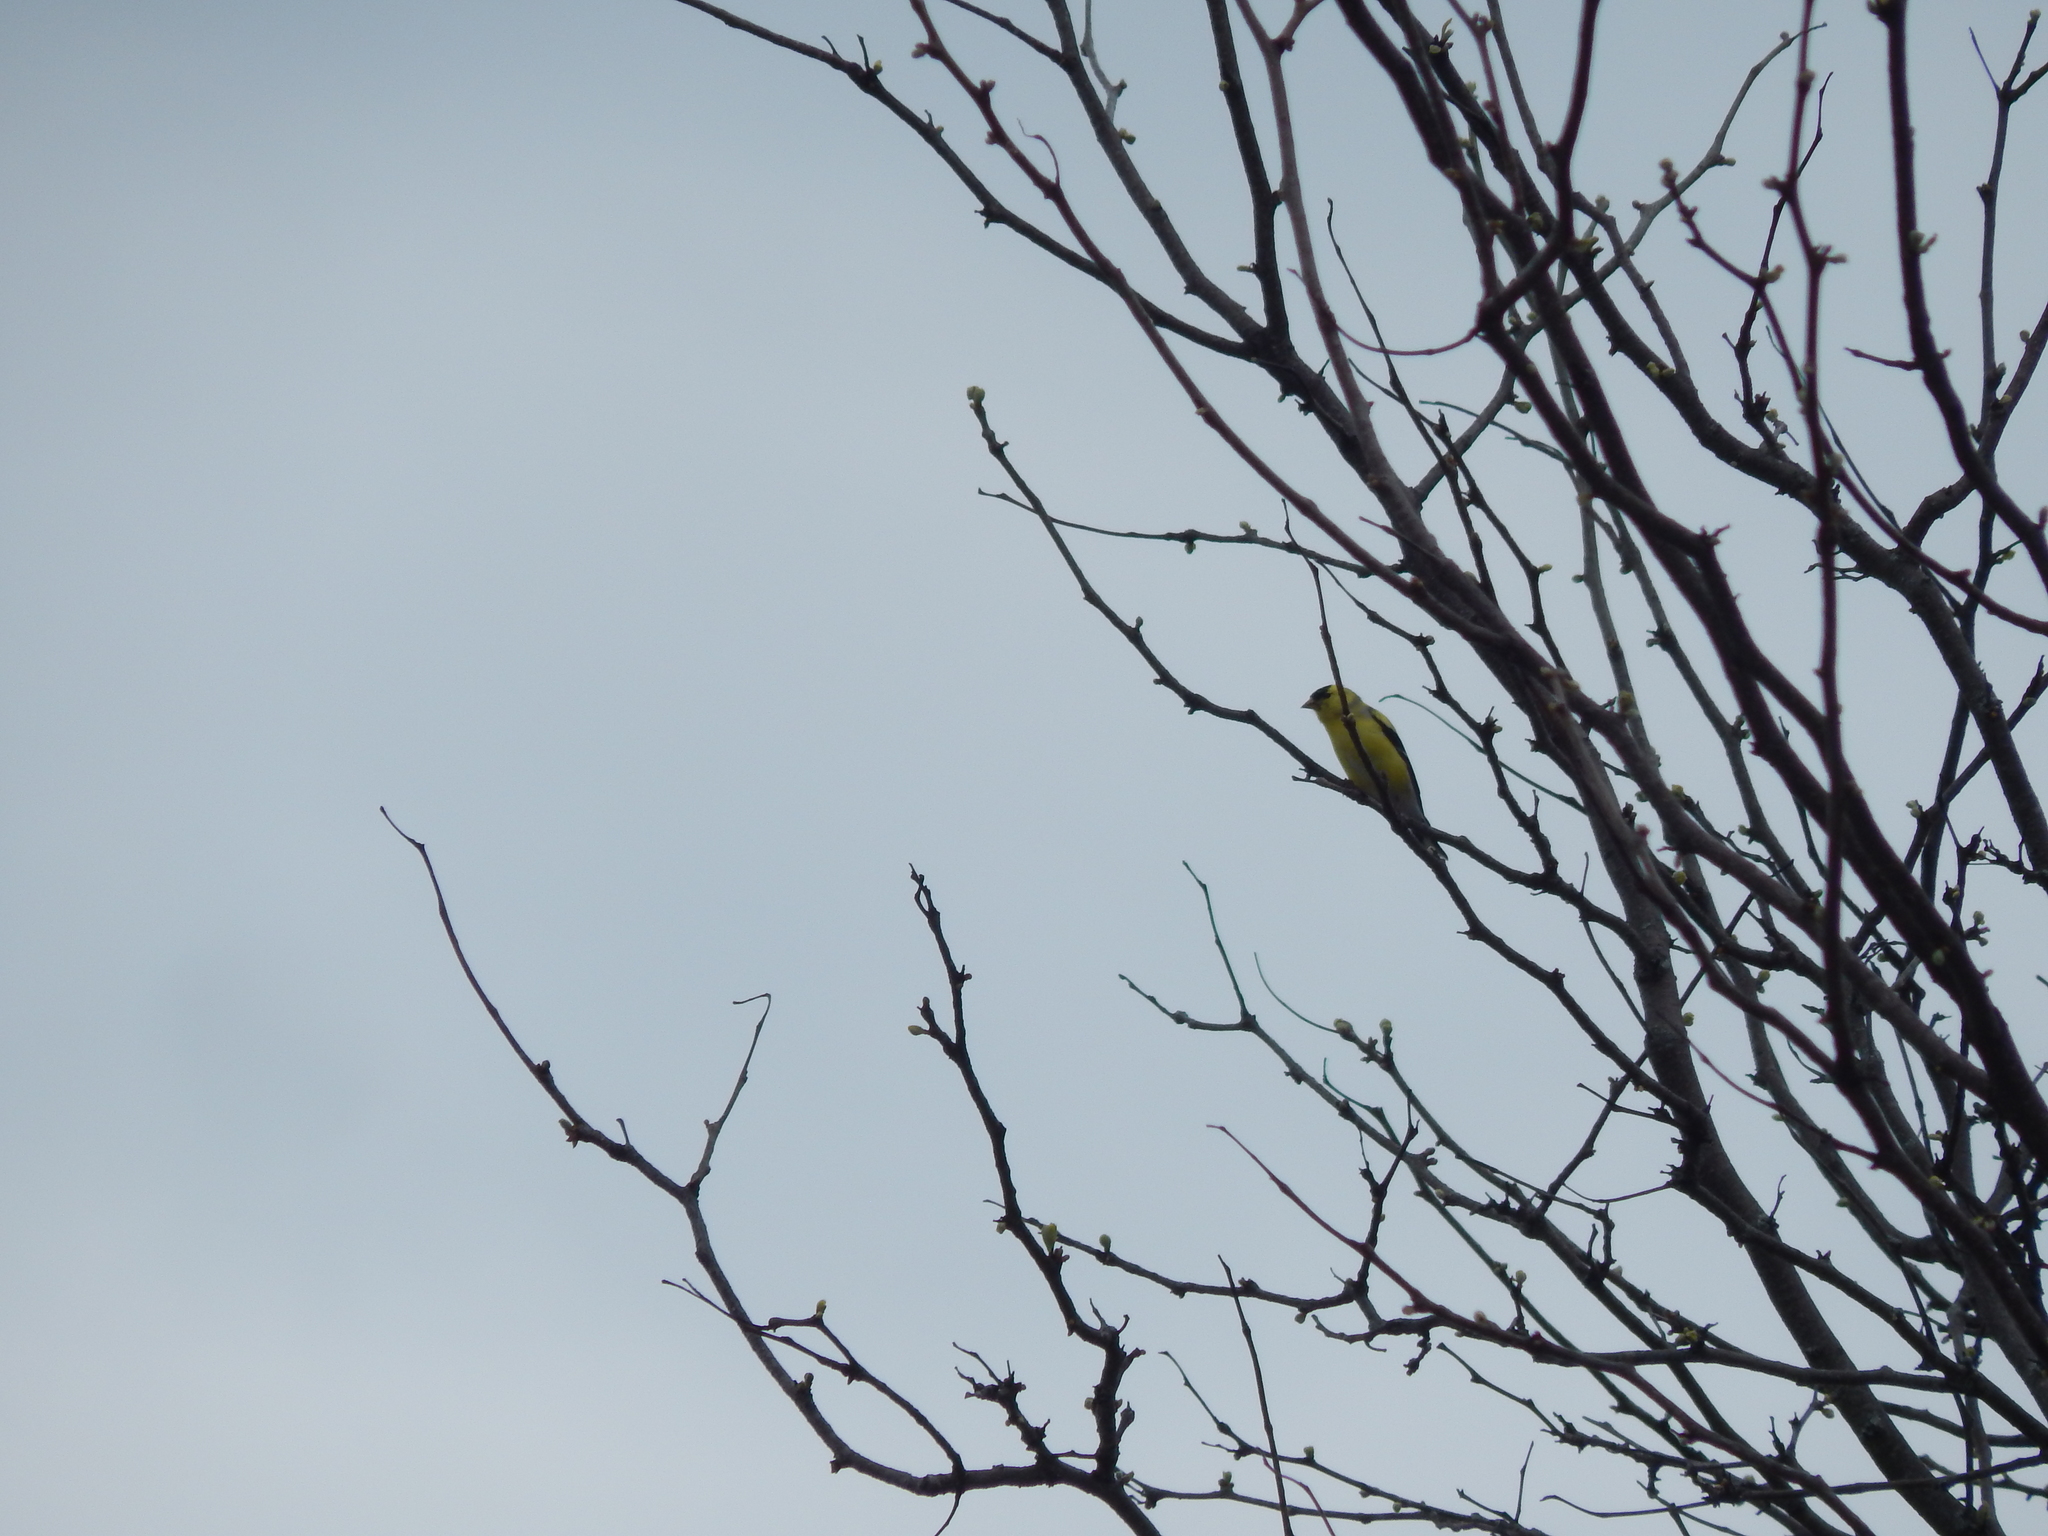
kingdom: Animalia
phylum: Chordata
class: Aves
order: Passeriformes
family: Fringillidae
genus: Spinus
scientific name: Spinus tristis
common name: American goldfinch
